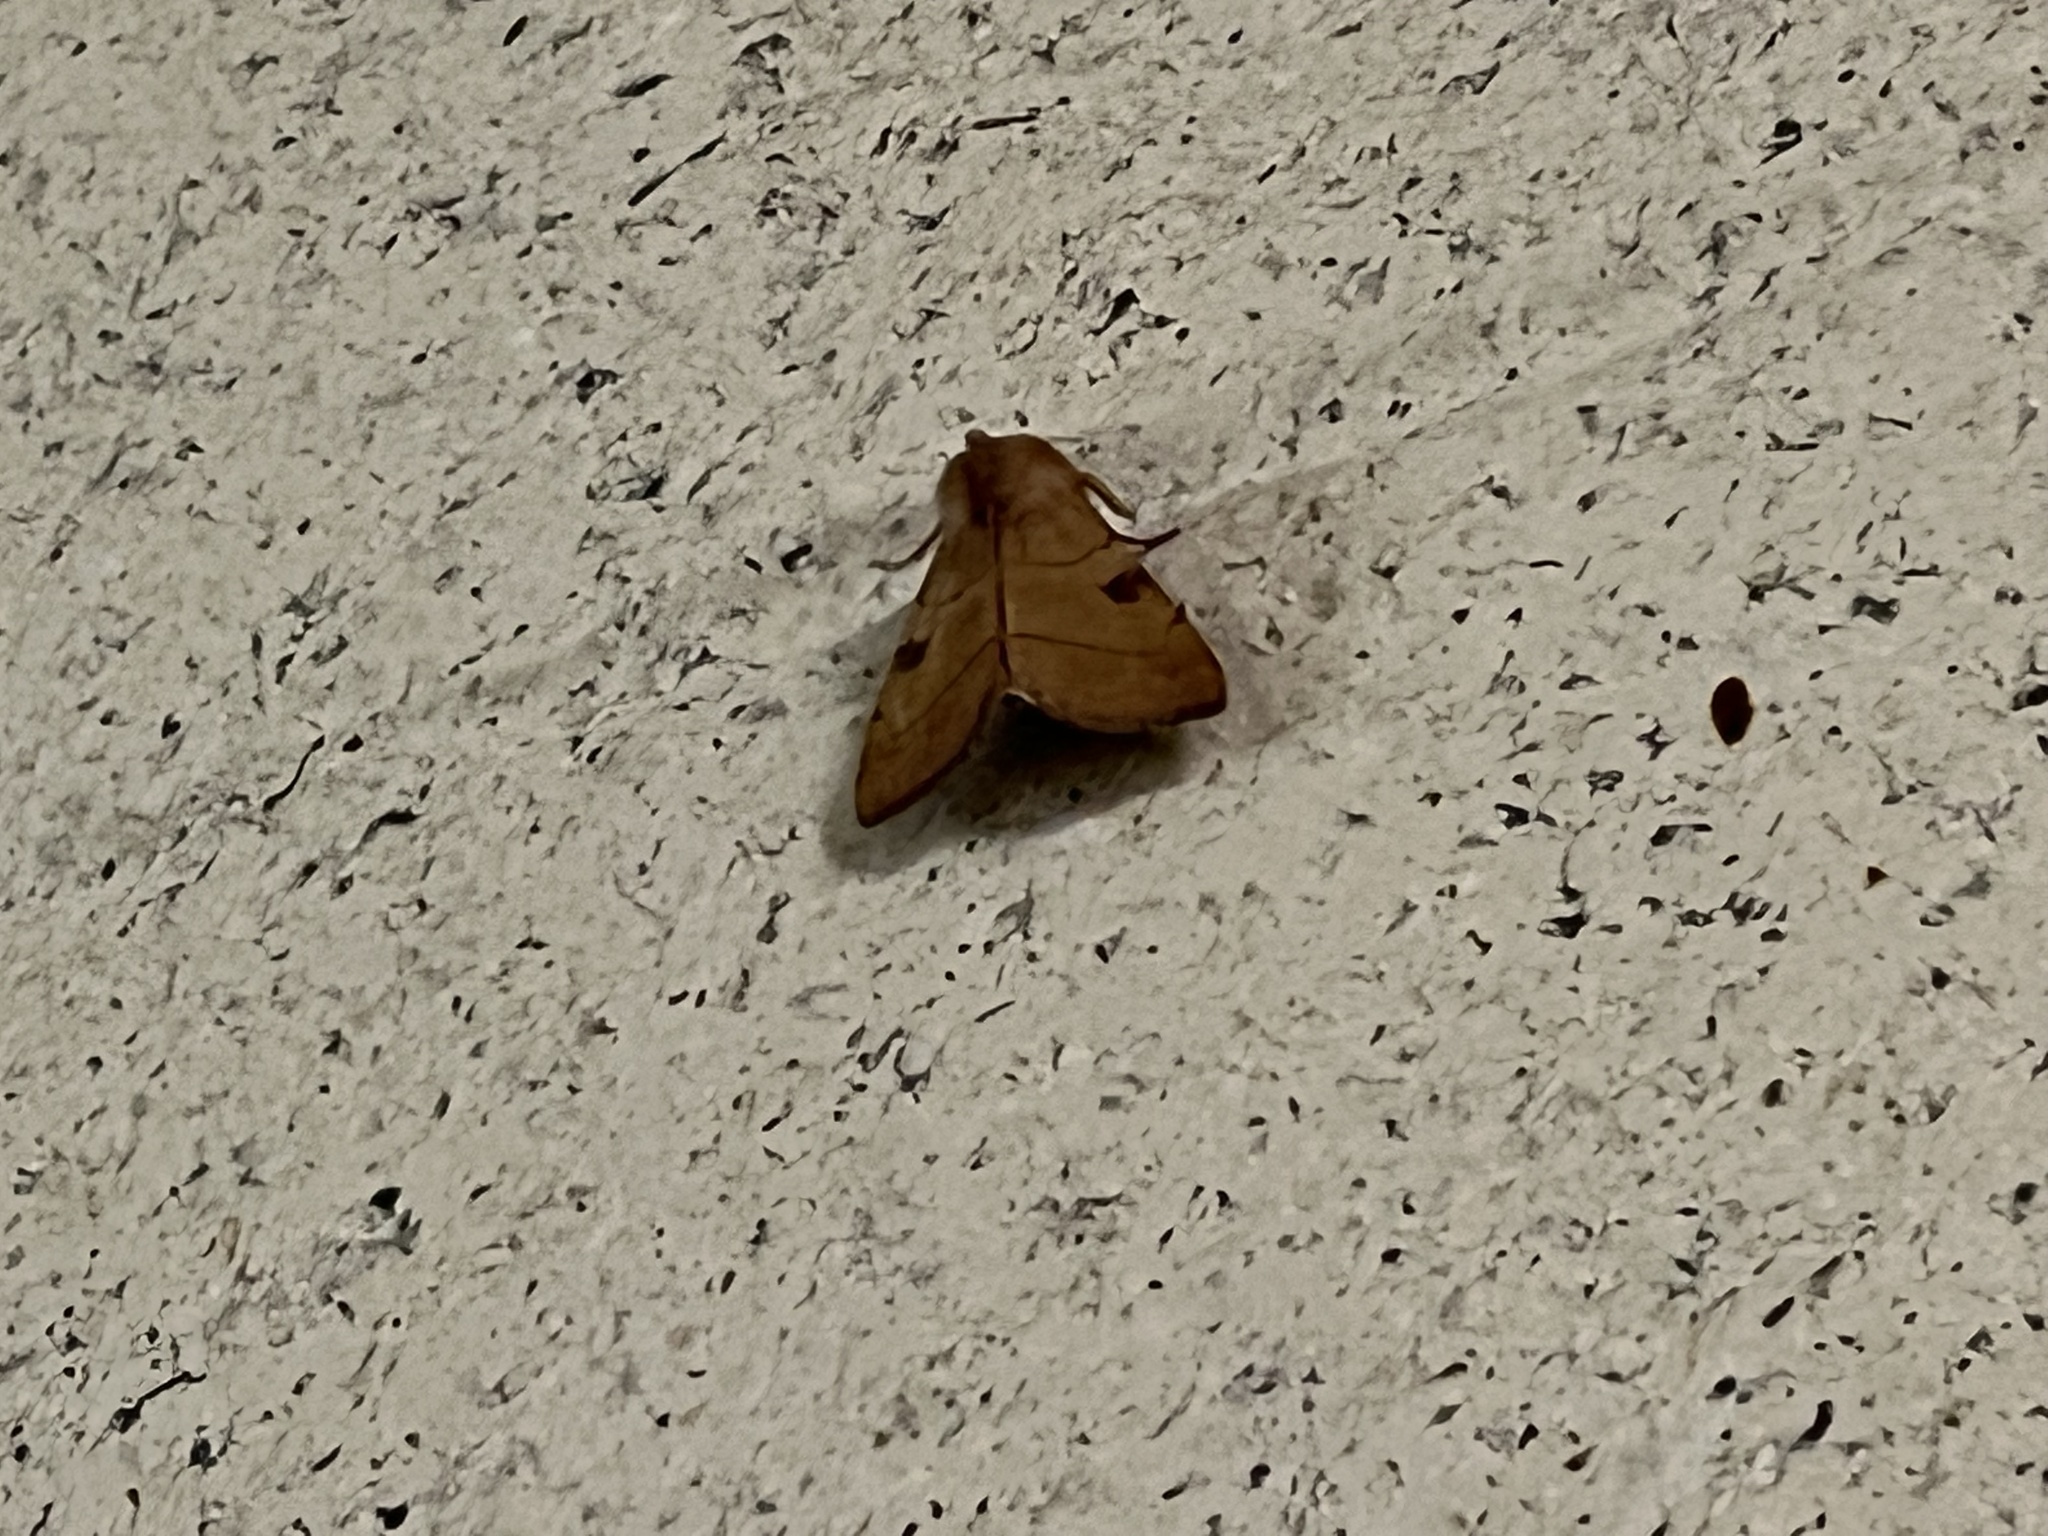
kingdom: Animalia
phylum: Arthropoda
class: Insecta
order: Lepidoptera
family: Noctuidae
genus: Choephora
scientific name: Choephora fungorum
